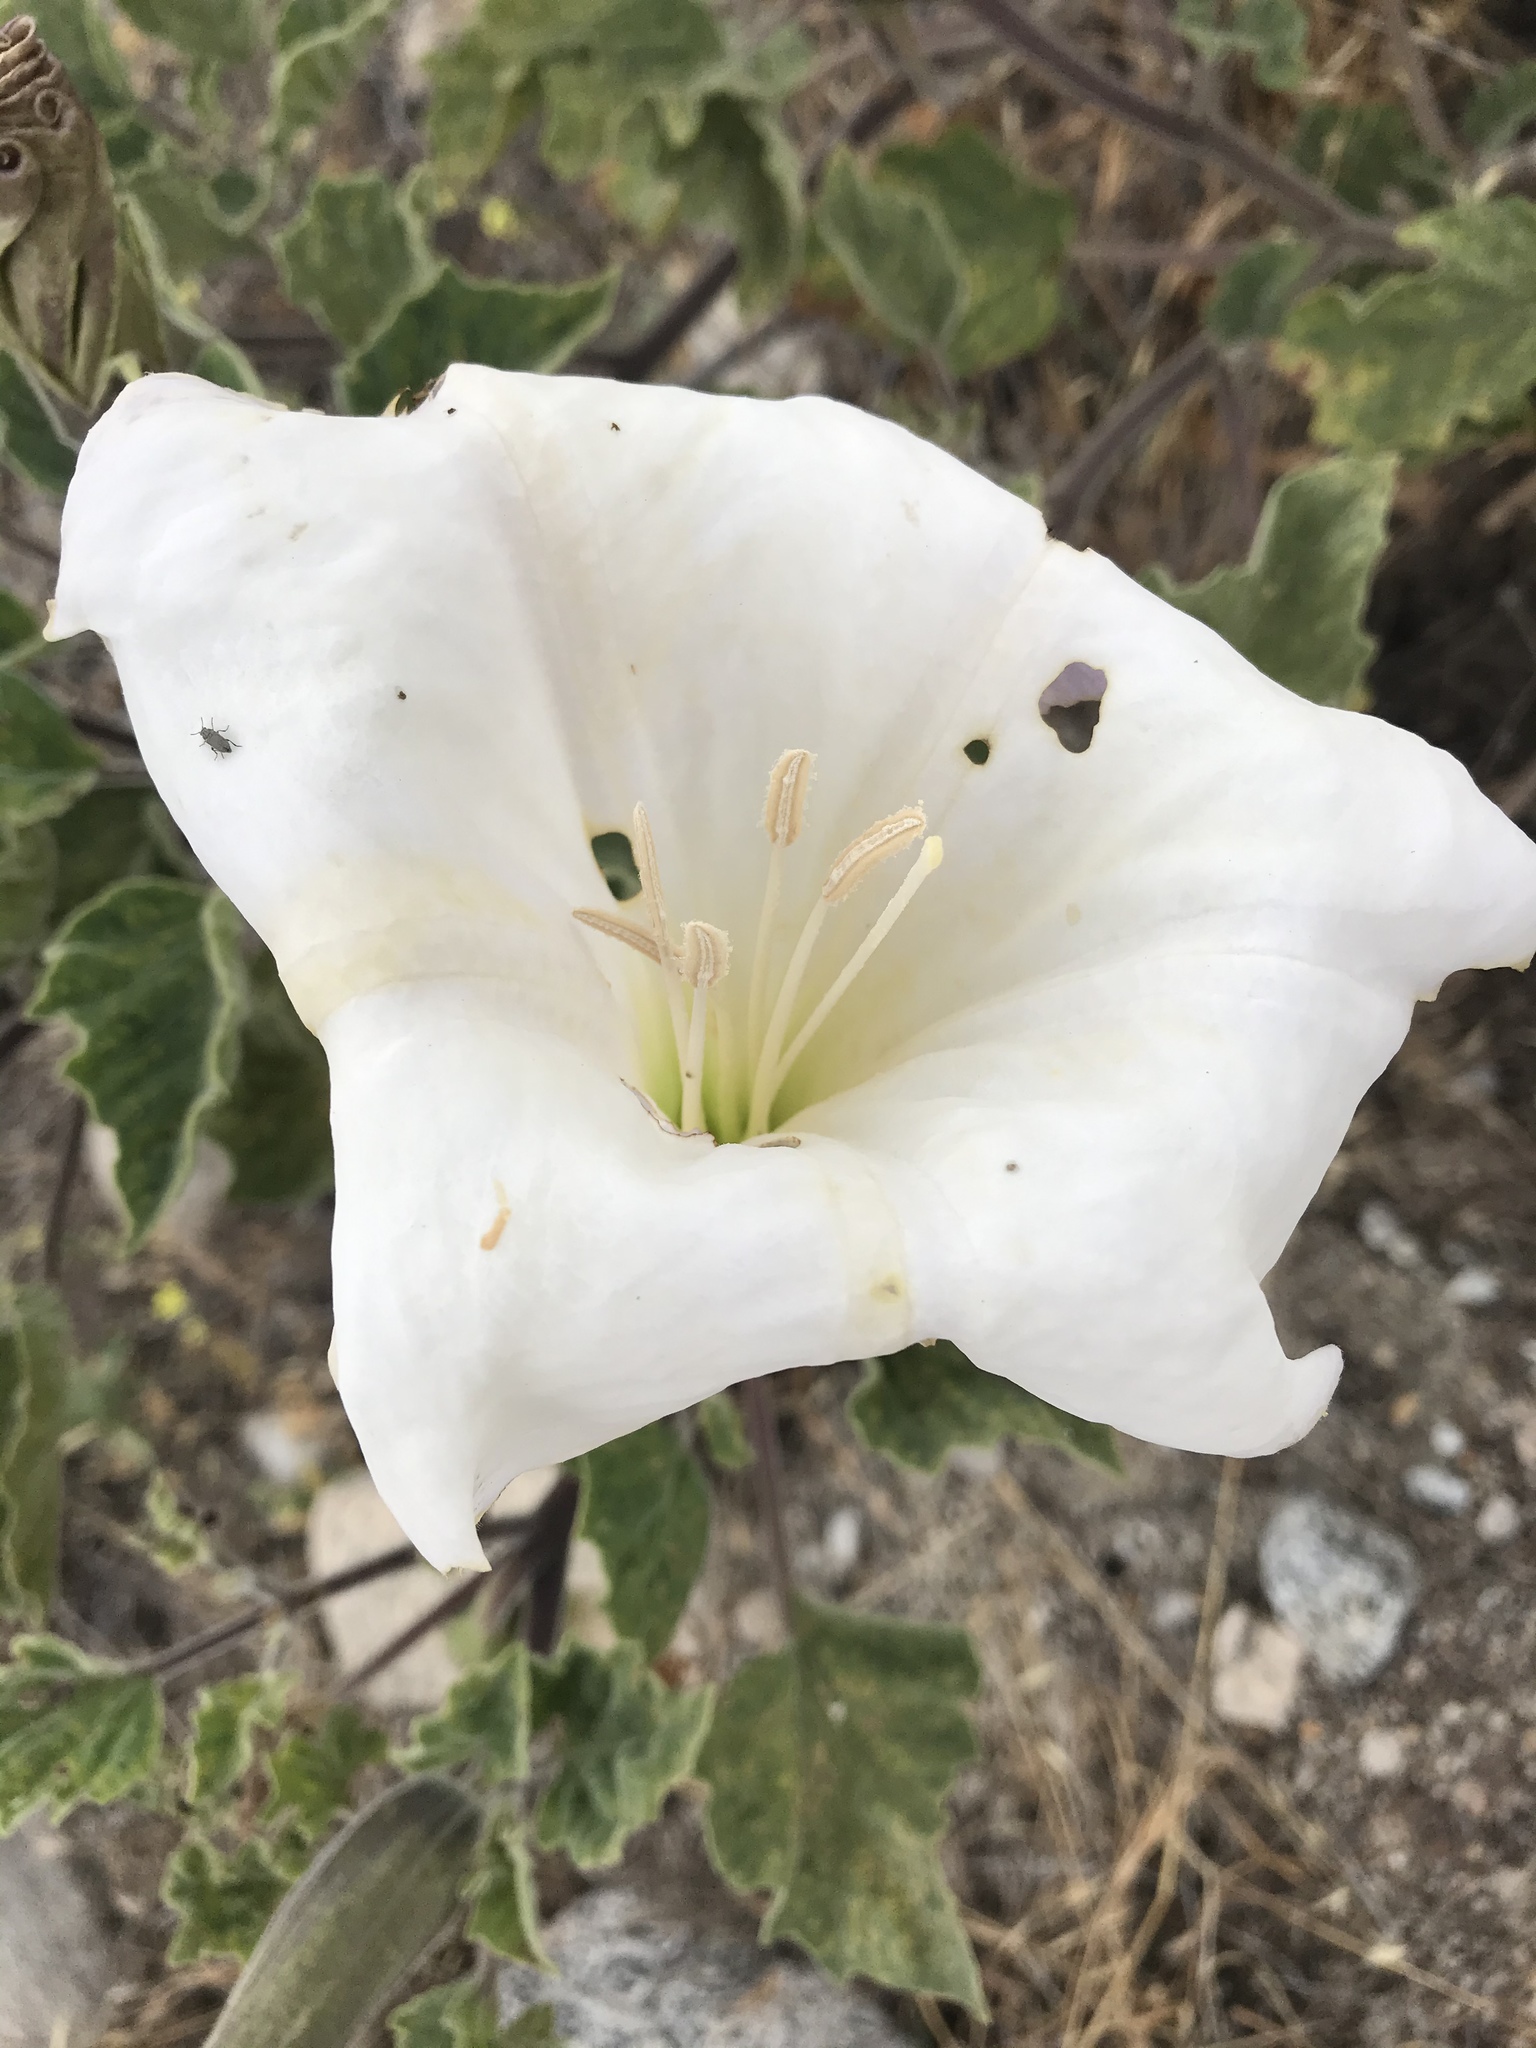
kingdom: Plantae
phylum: Tracheophyta
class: Magnoliopsida
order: Solanales
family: Solanaceae
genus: Datura
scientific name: Datura wrightii
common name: Sacred thorn-apple
